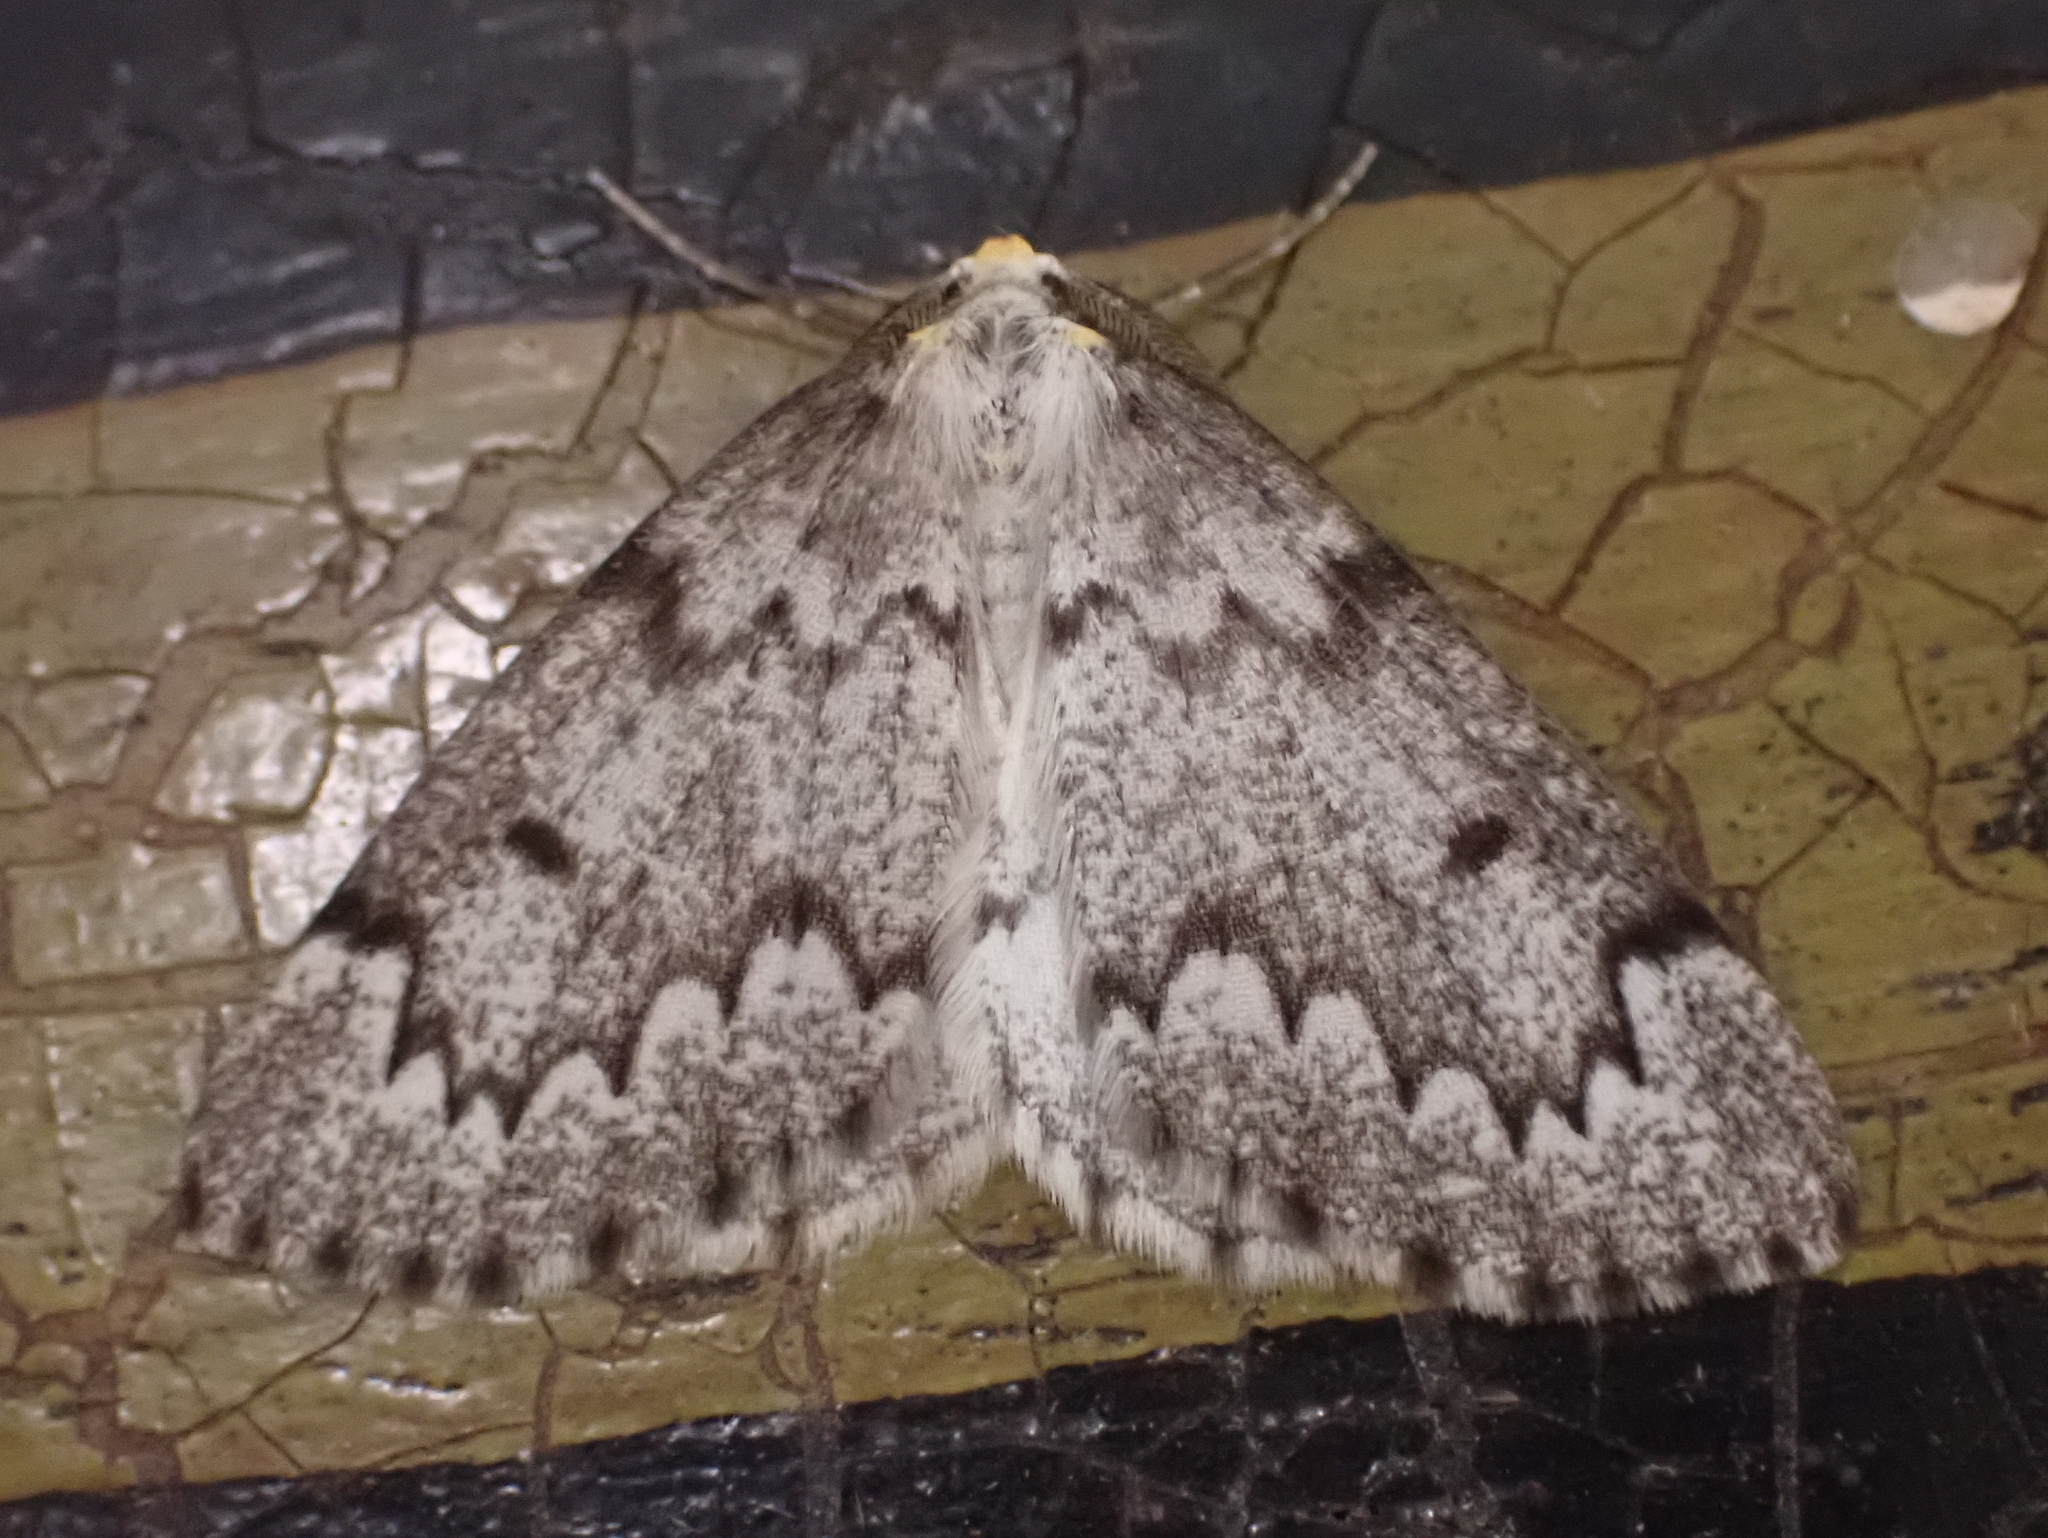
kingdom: Animalia
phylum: Arthropoda
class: Insecta
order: Lepidoptera
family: Geometridae
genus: Nepytia
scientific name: Nepytia canosaria
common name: False hemlock looper
